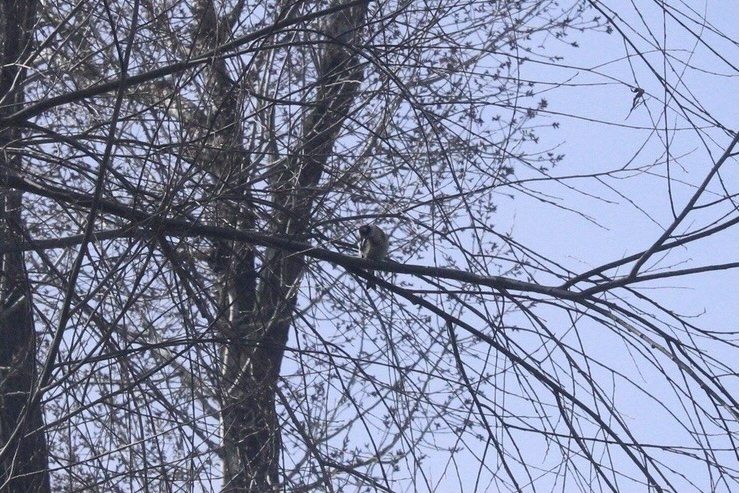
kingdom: Animalia
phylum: Chordata
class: Aves
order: Passeriformes
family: Fringillidae
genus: Carduelis
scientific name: Carduelis carduelis
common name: European goldfinch
